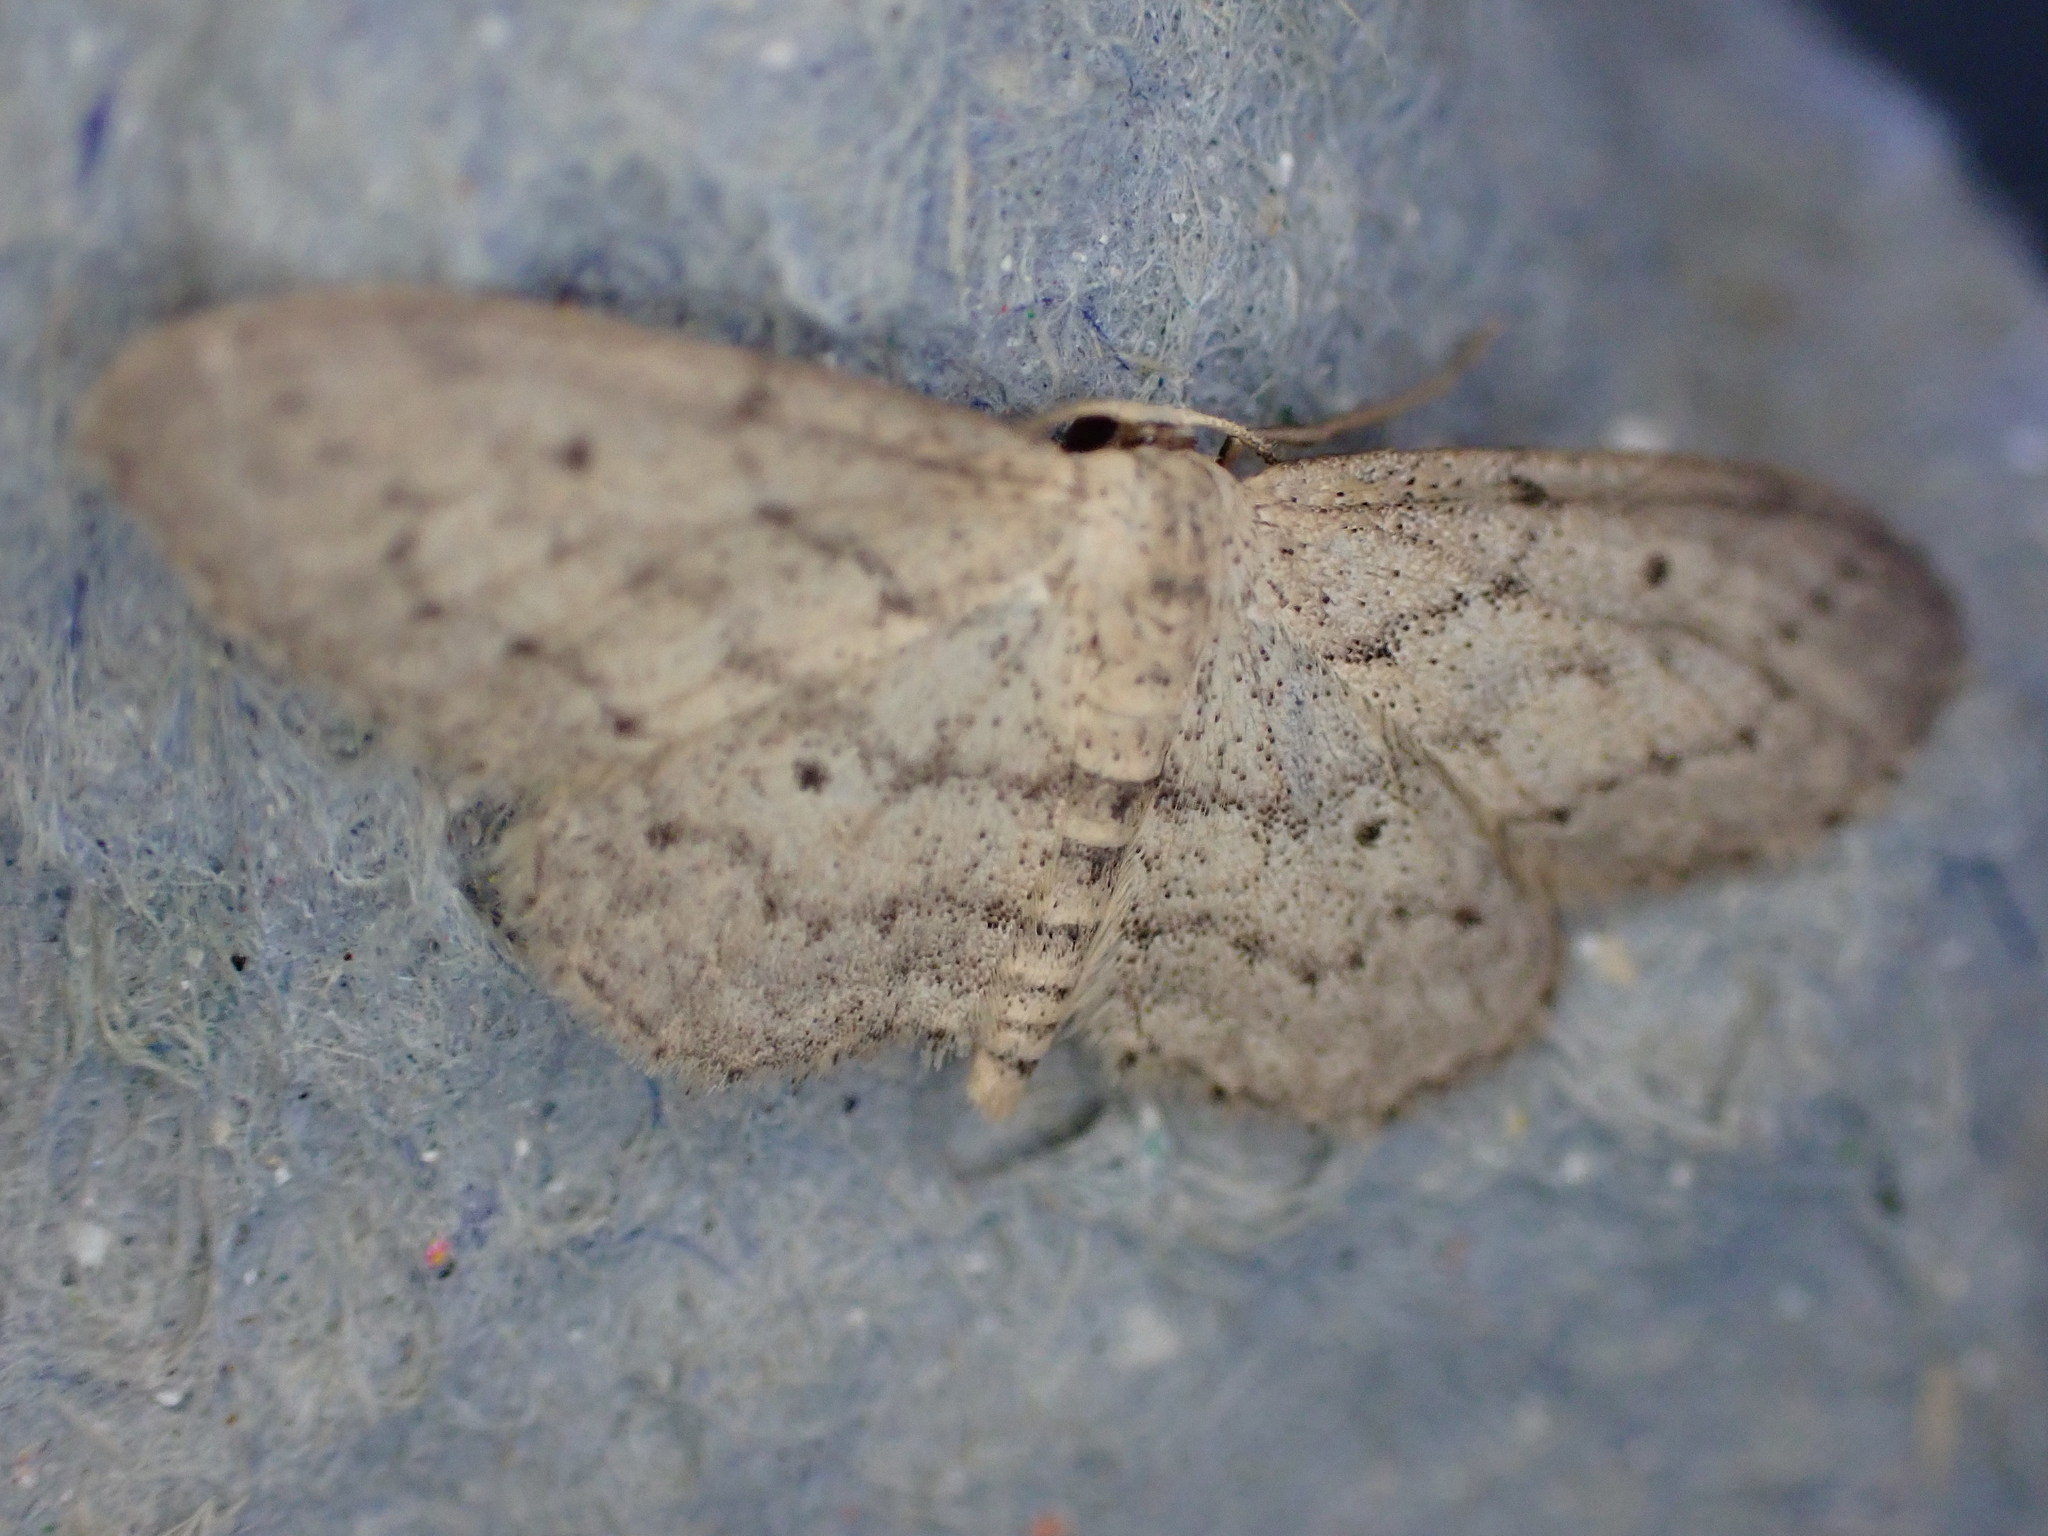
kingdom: Animalia
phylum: Arthropoda
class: Insecta
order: Lepidoptera
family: Geometridae
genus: Idaea
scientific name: Idaea seriata
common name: Small dusty wave
